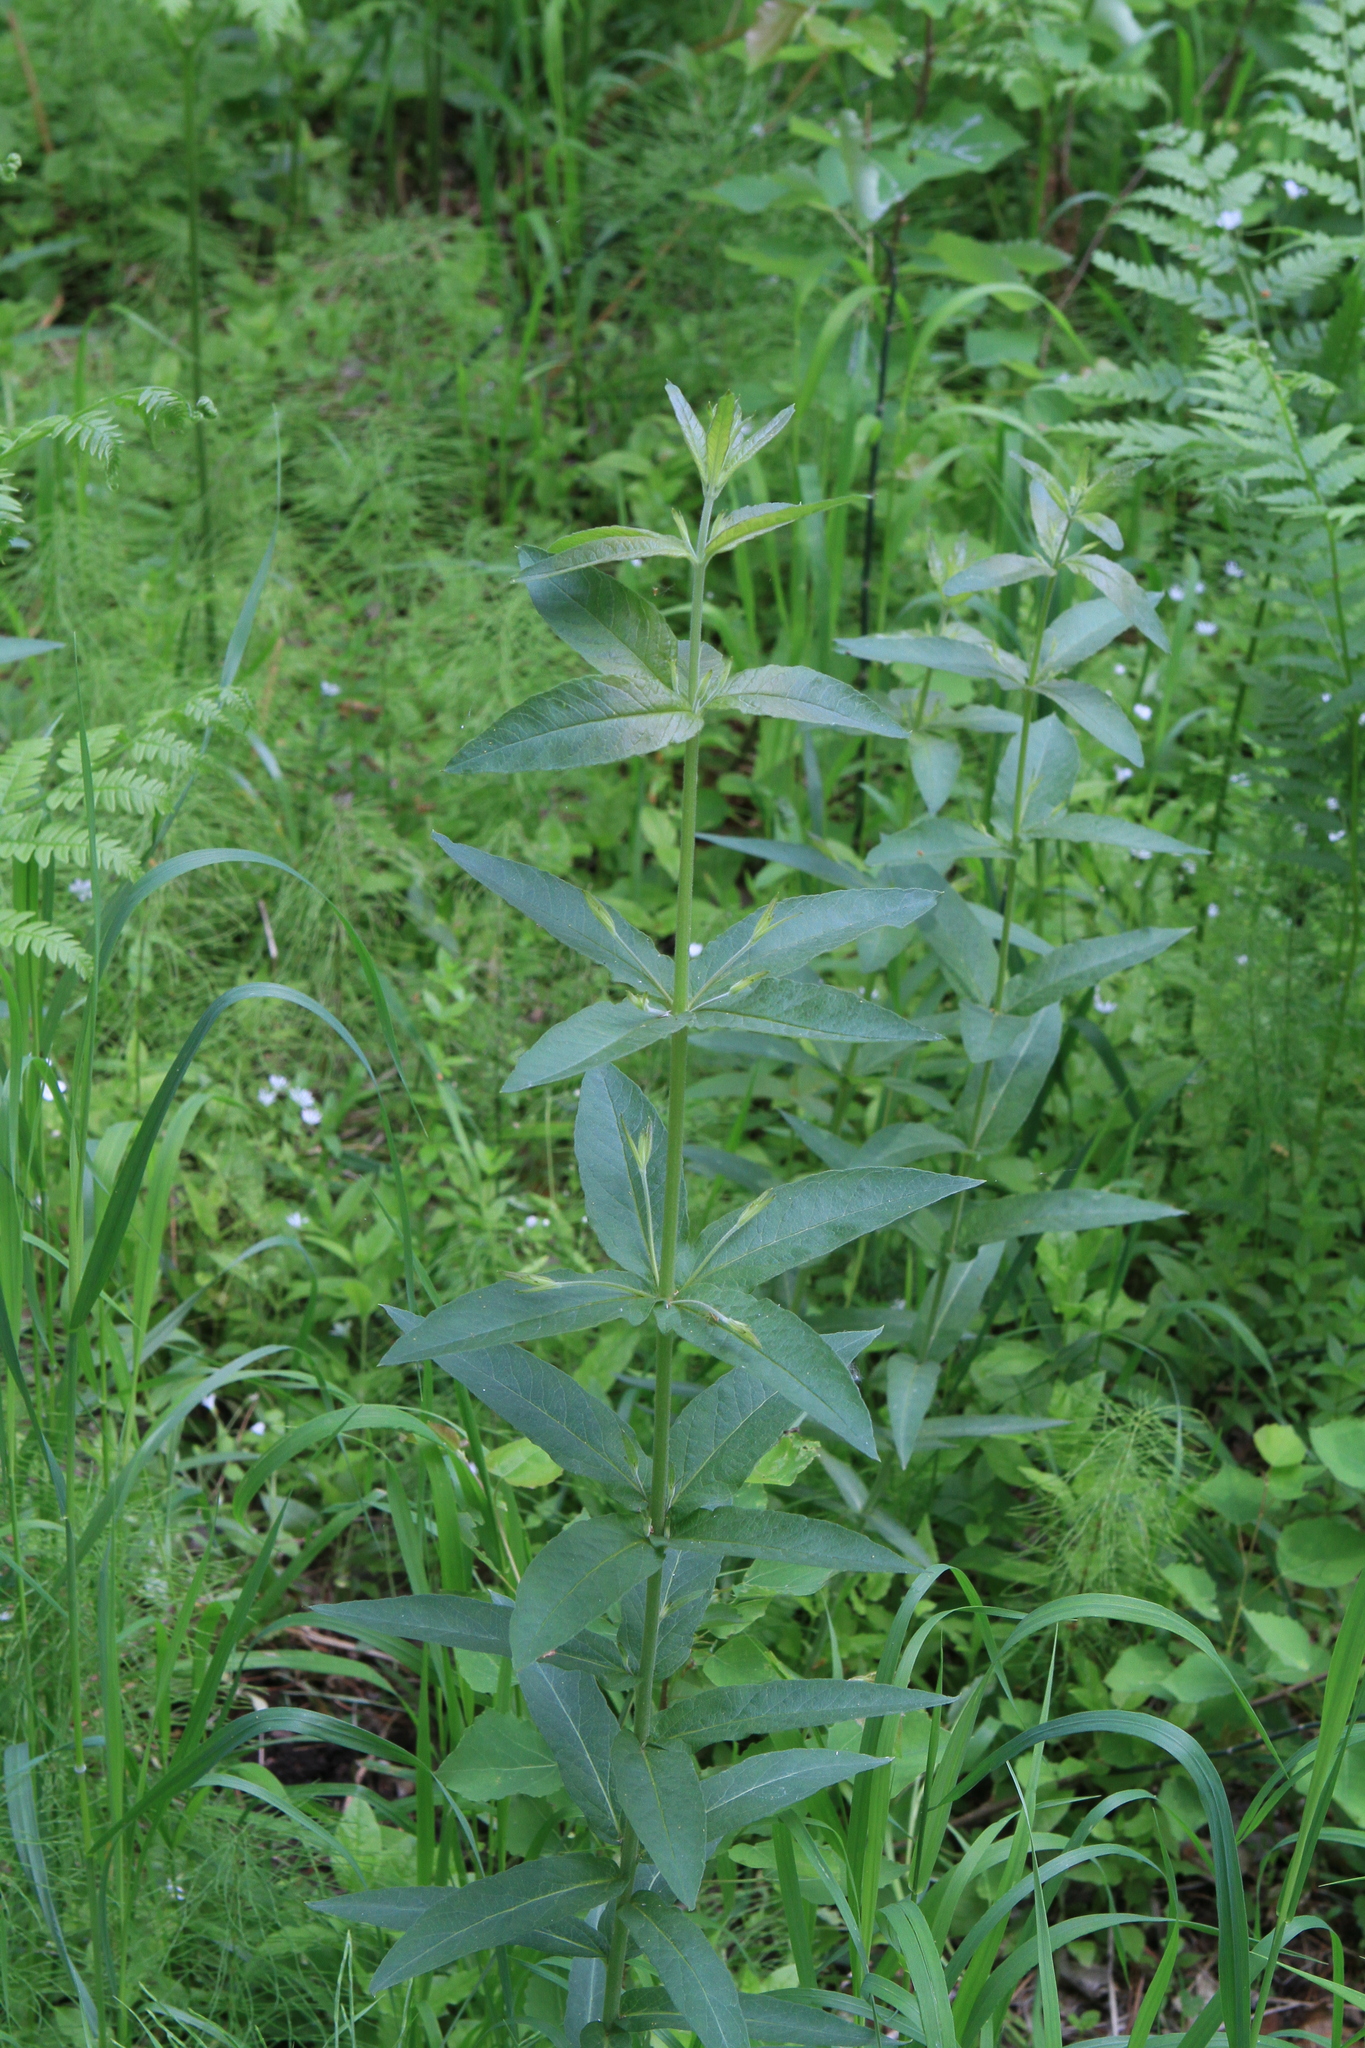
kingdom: Plantae
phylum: Tracheophyta
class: Magnoliopsida
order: Ericales
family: Primulaceae
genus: Lysimachia
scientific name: Lysimachia vulgaris
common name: Yellow loosestrife
